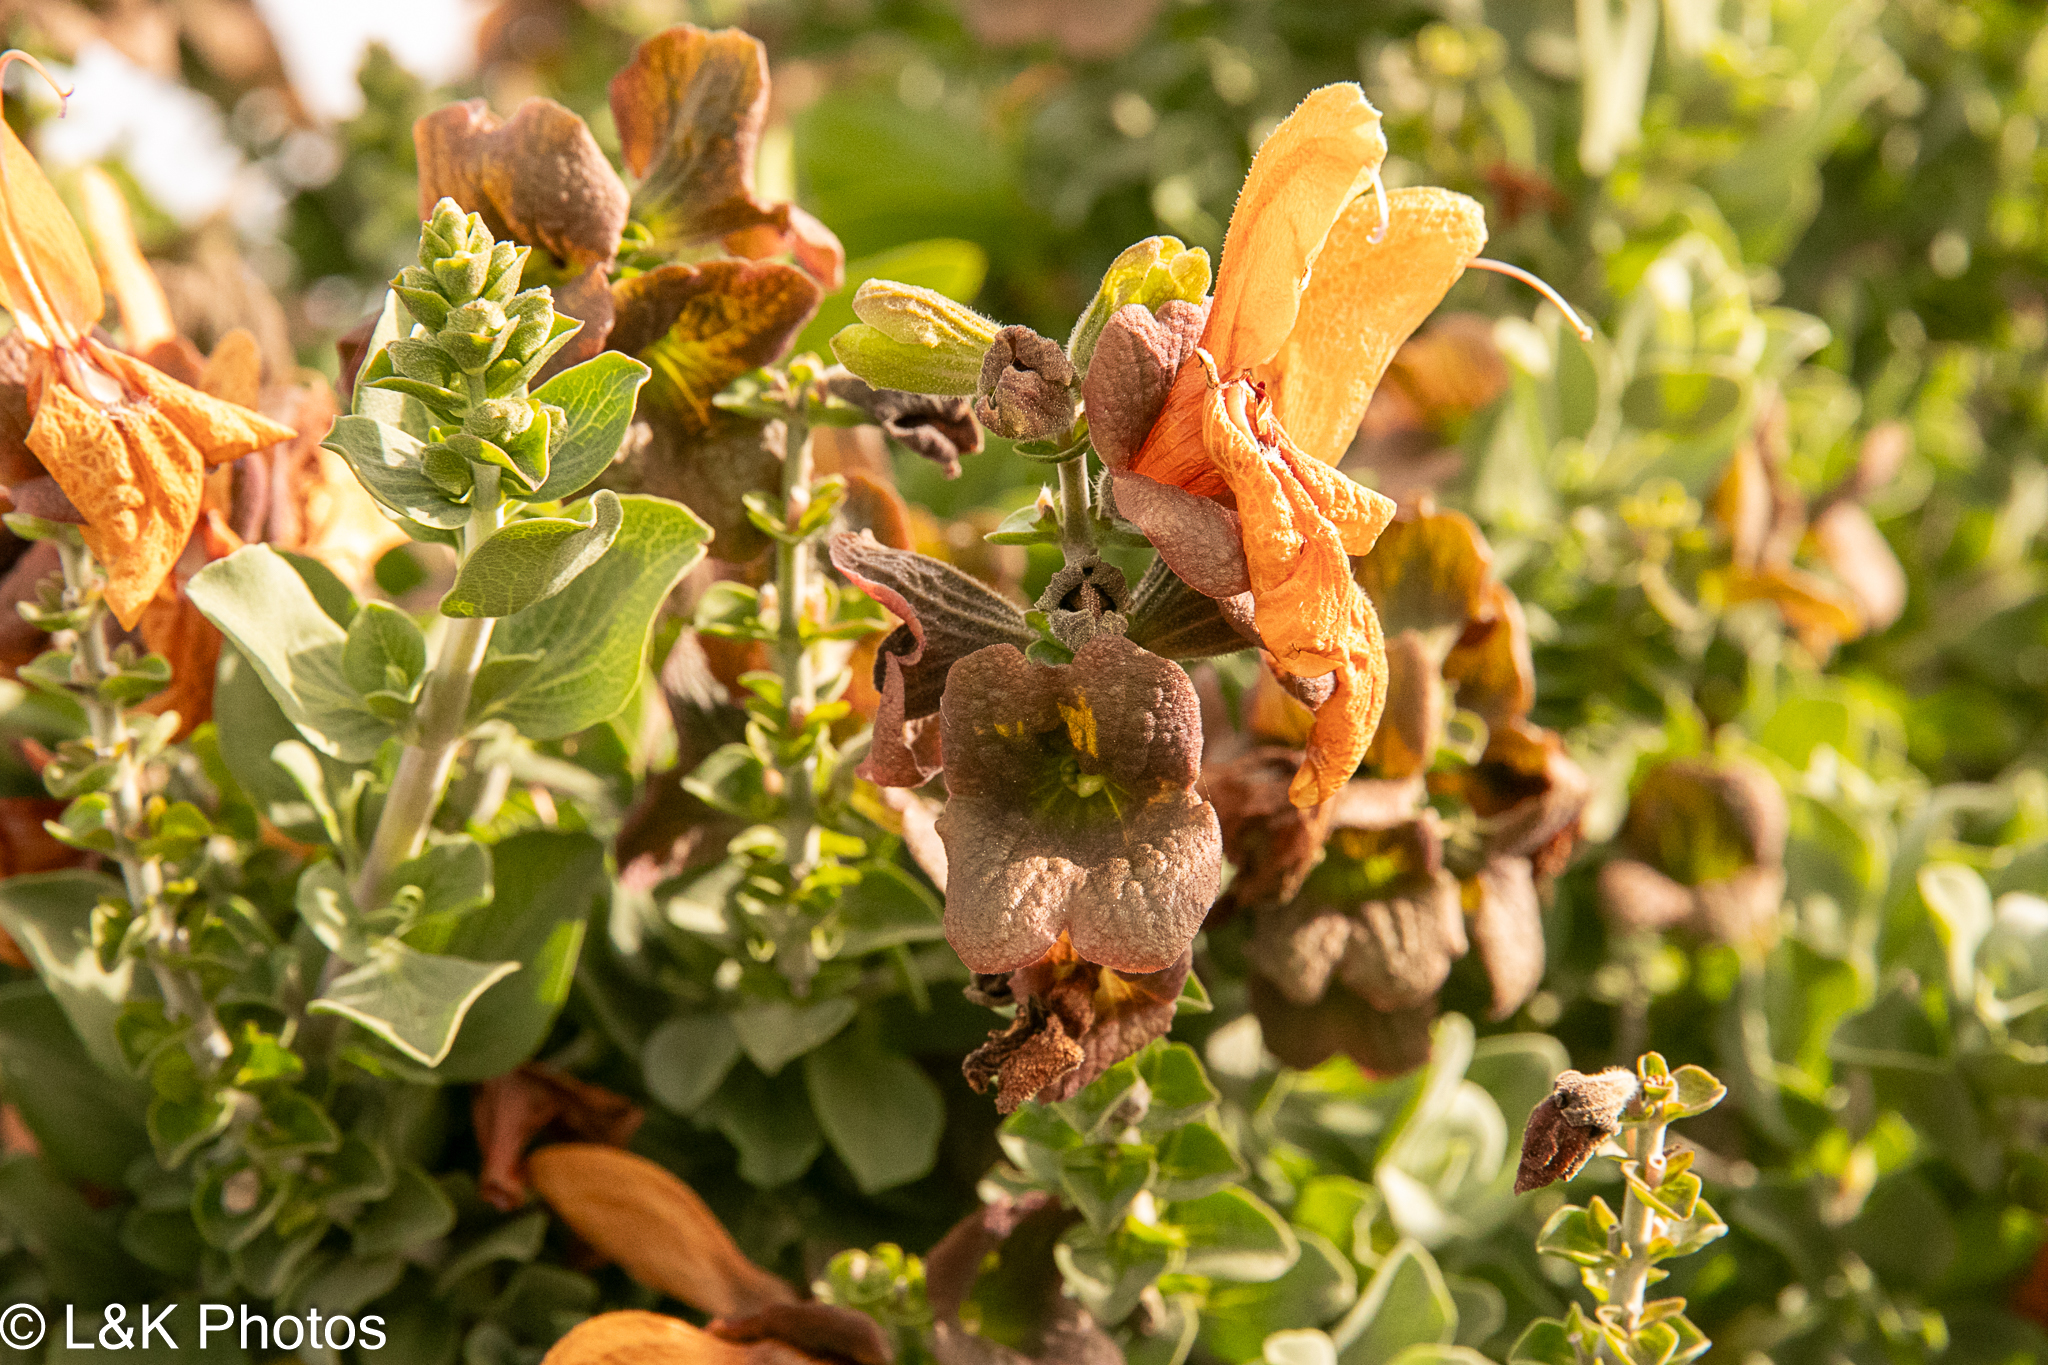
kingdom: Plantae
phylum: Tracheophyta
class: Magnoliopsida
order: Lamiales
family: Lamiaceae
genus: Salvia
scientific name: Salvia aurea
